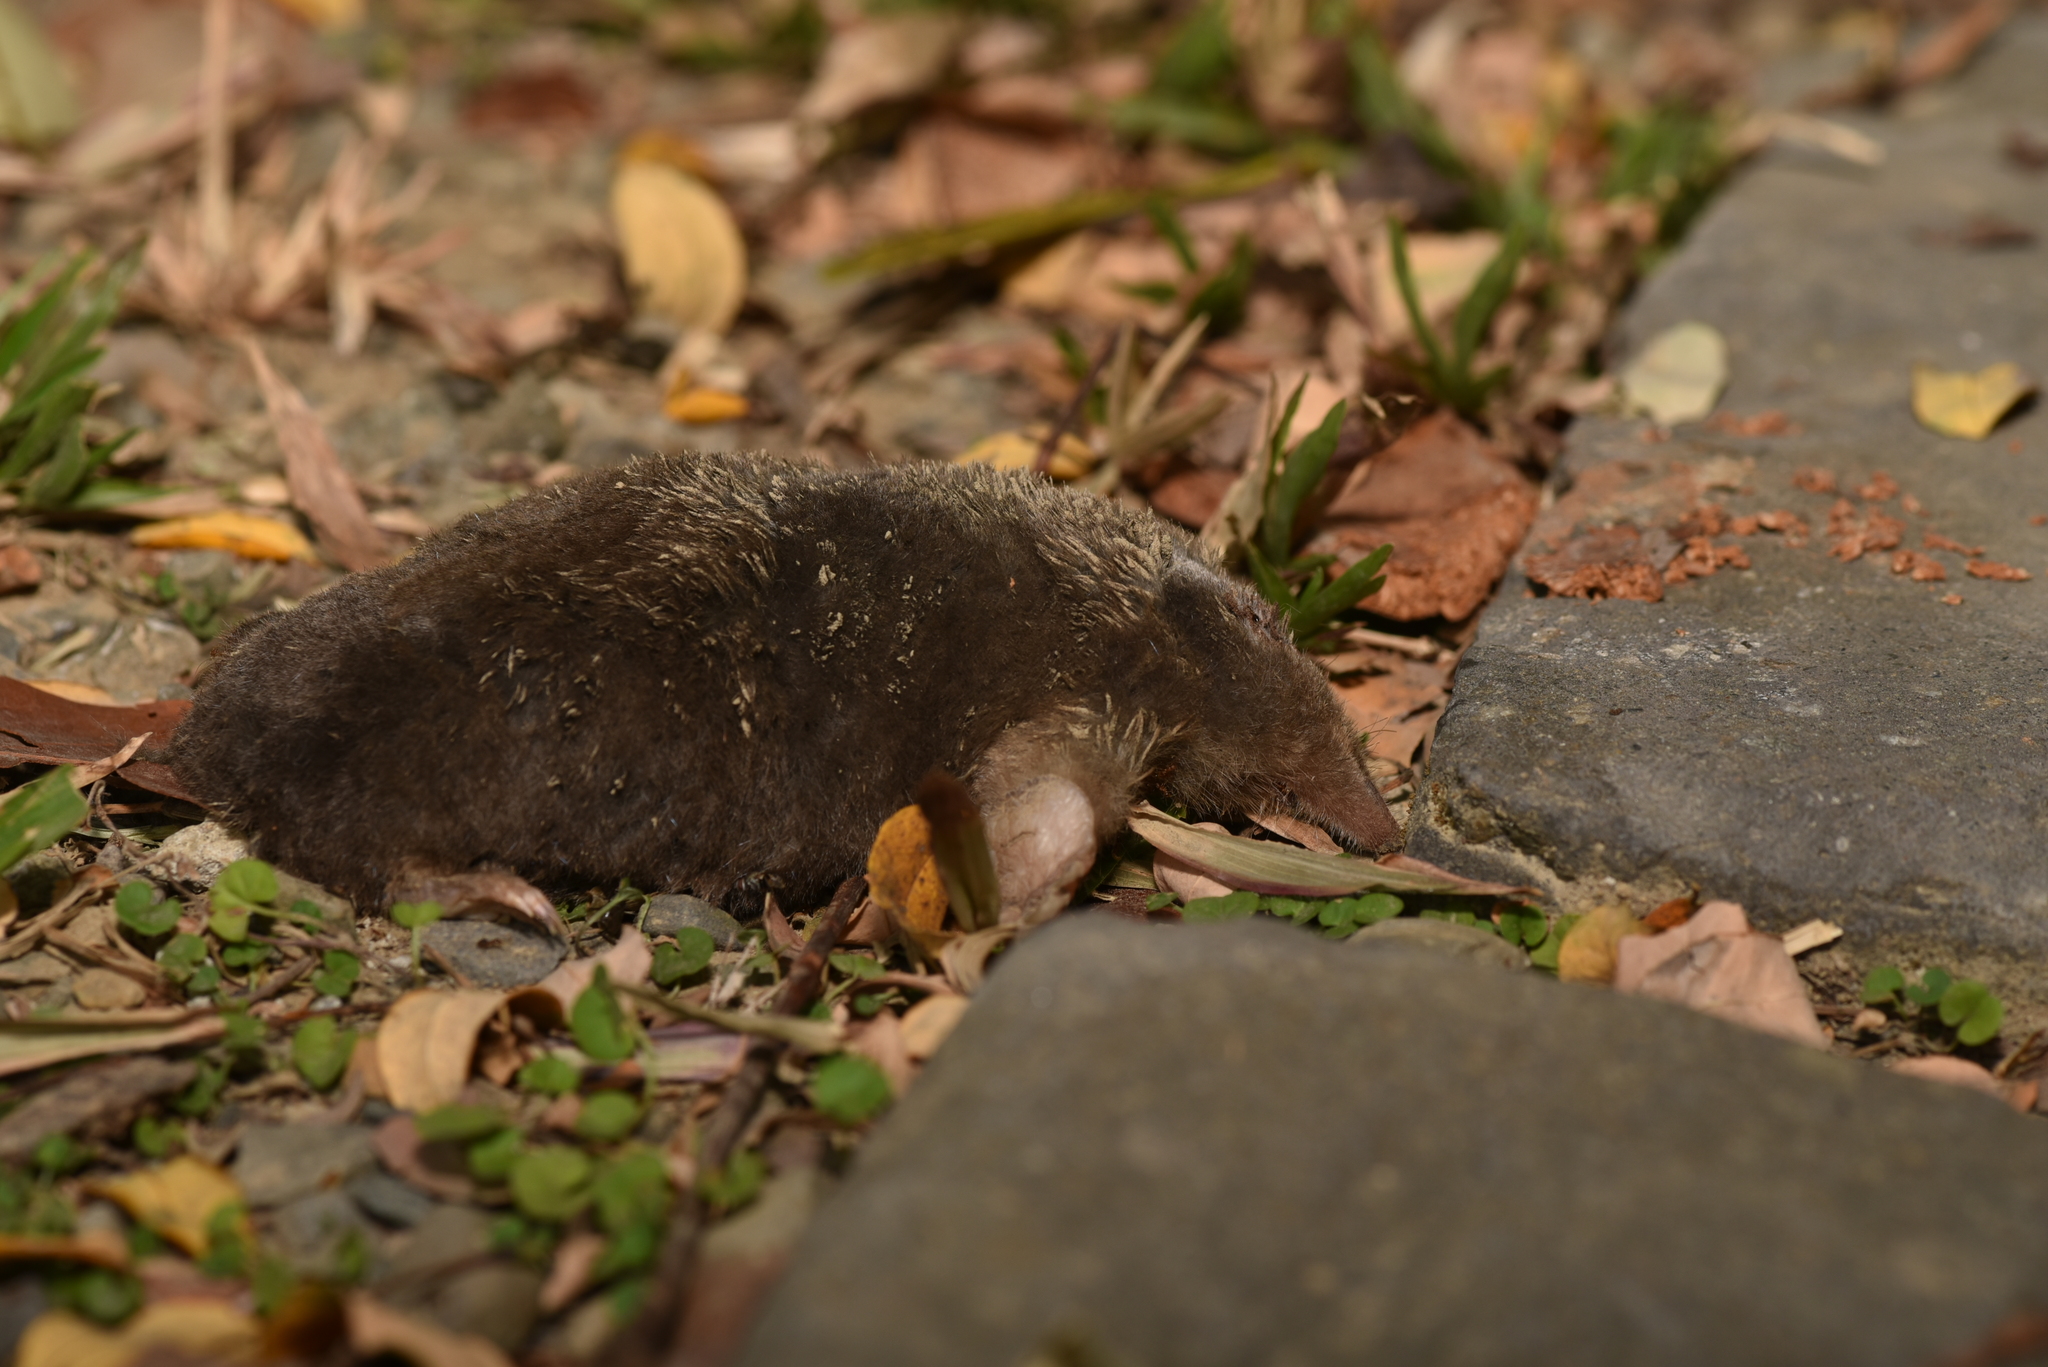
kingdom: Animalia
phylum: Chordata
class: Mammalia
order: Soricomorpha
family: Talpidae
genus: Mogera
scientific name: Mogera insularis
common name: Insular mole
